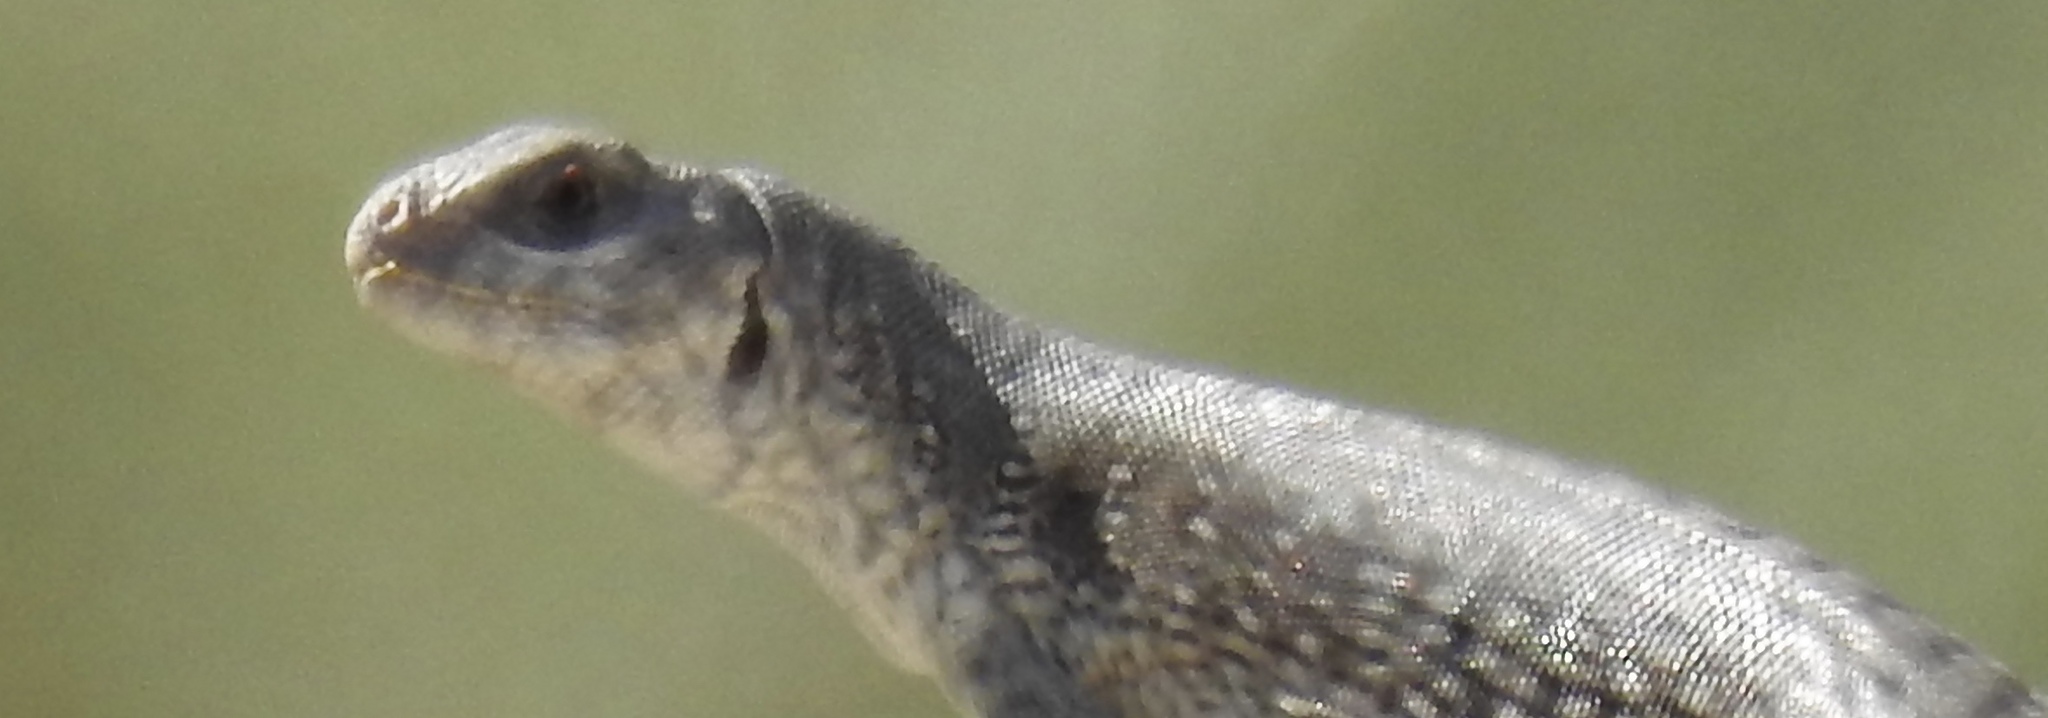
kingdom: Animalia
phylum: Chordata
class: Squamata
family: Iguanidae
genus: Dipsosaurus
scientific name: Dipsosaurus dorsalis
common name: Desert iguana
